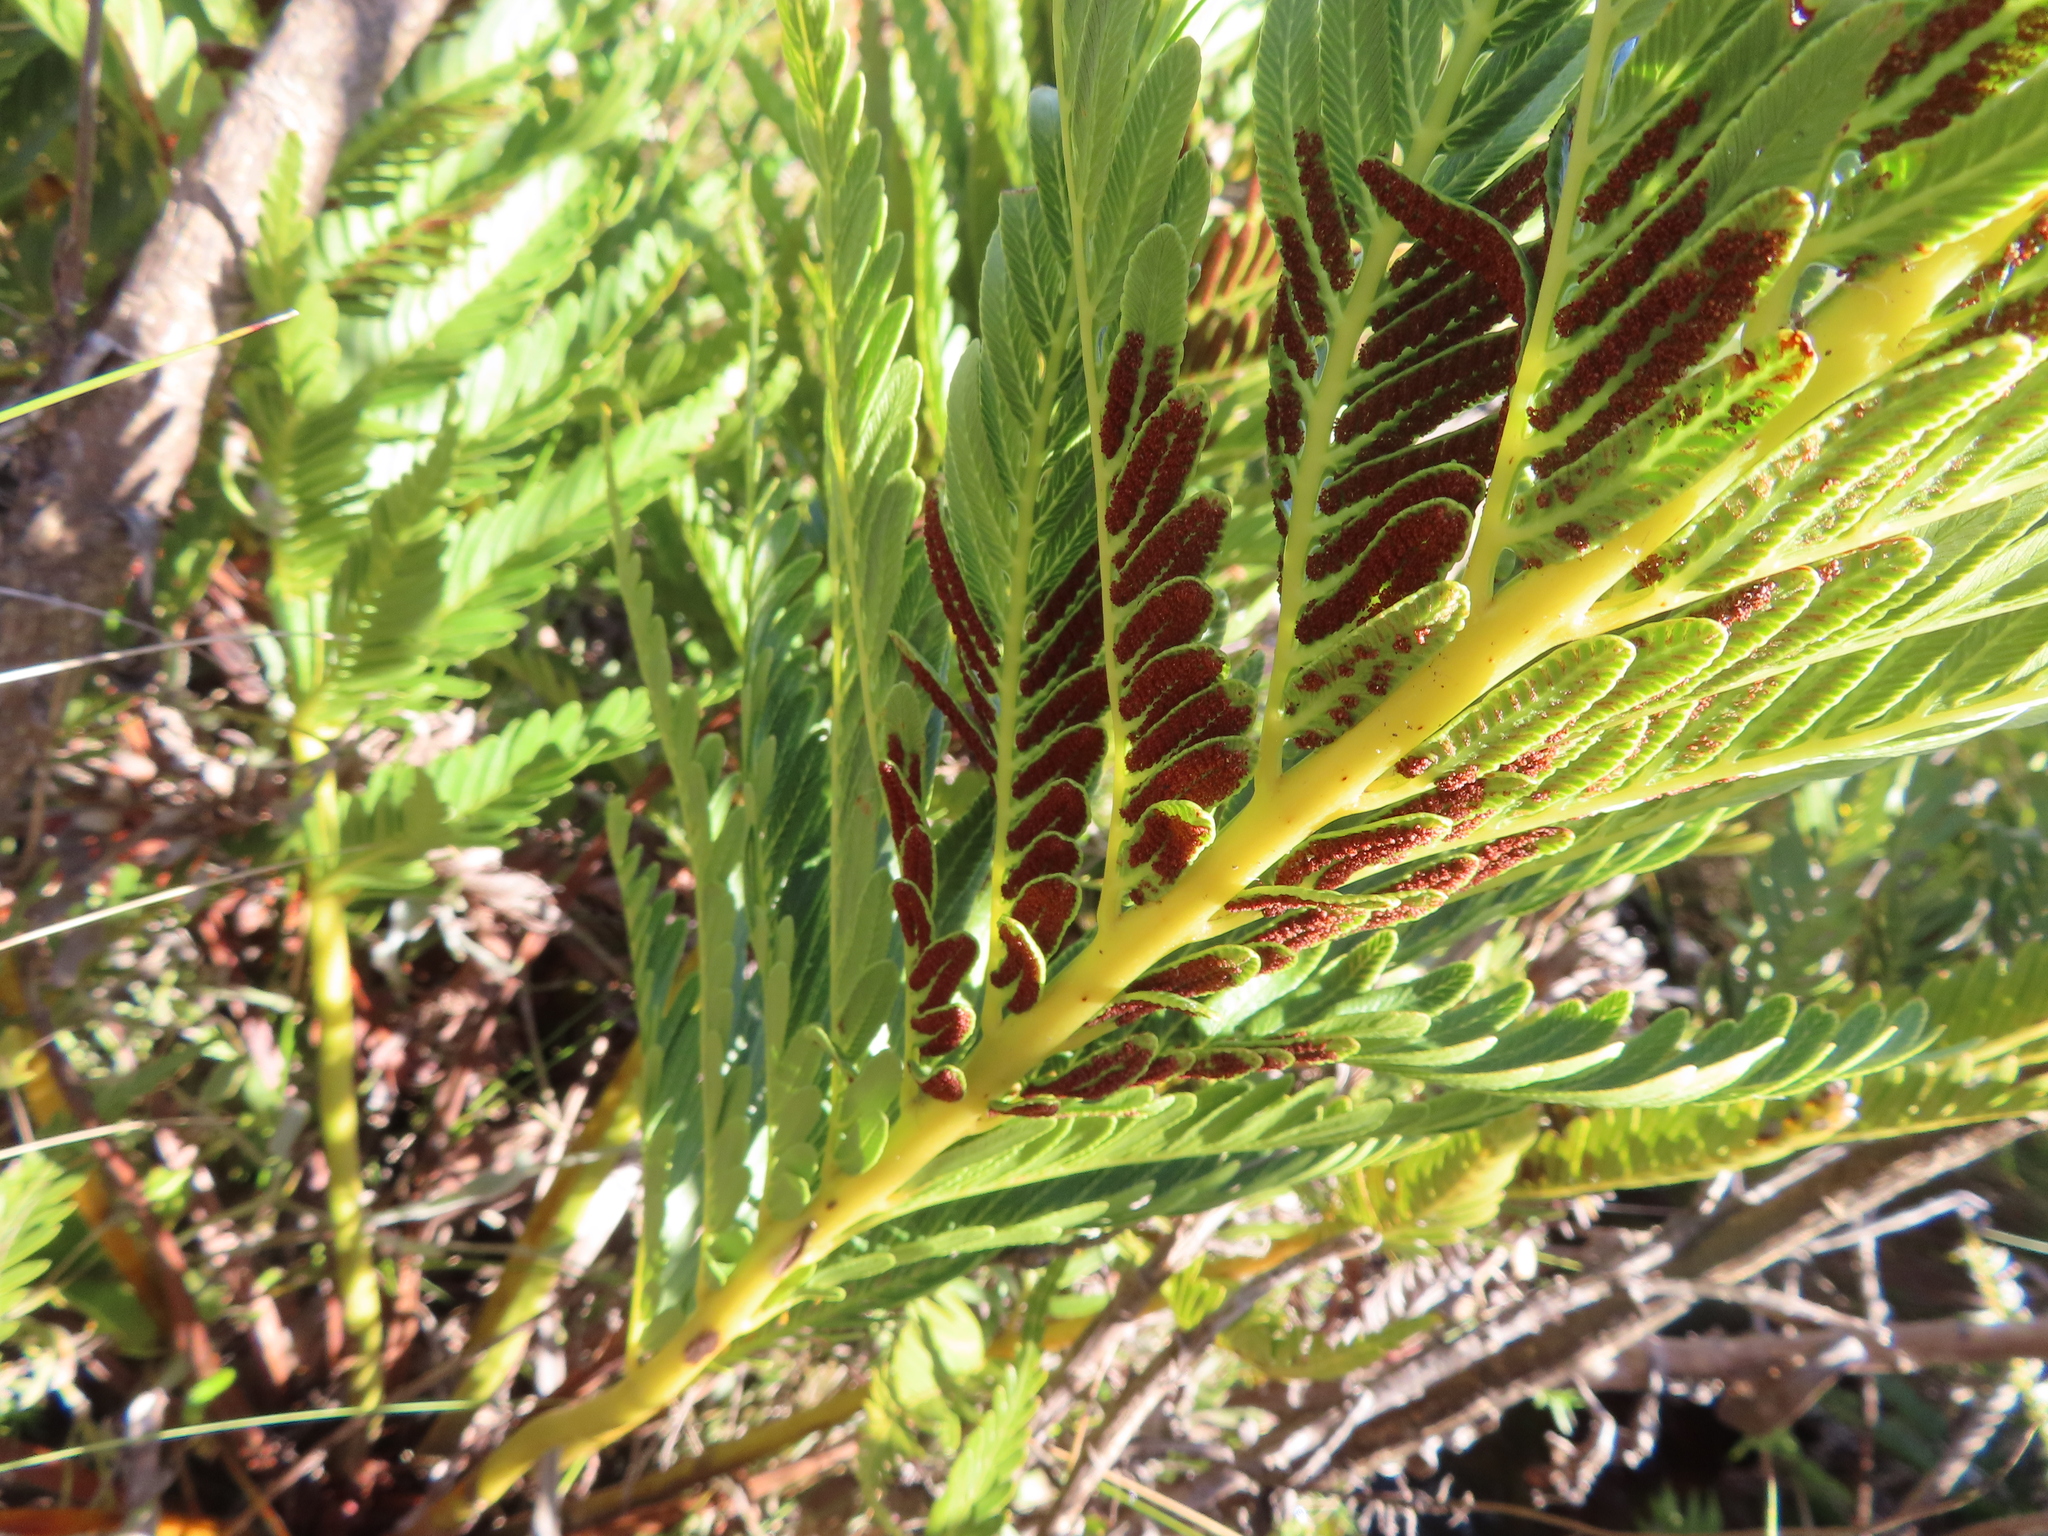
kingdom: Plantae
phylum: Tracheophyta
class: Polypodiopsida
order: Osmundales
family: Osmundaceae
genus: Todea
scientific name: Todea barbara
